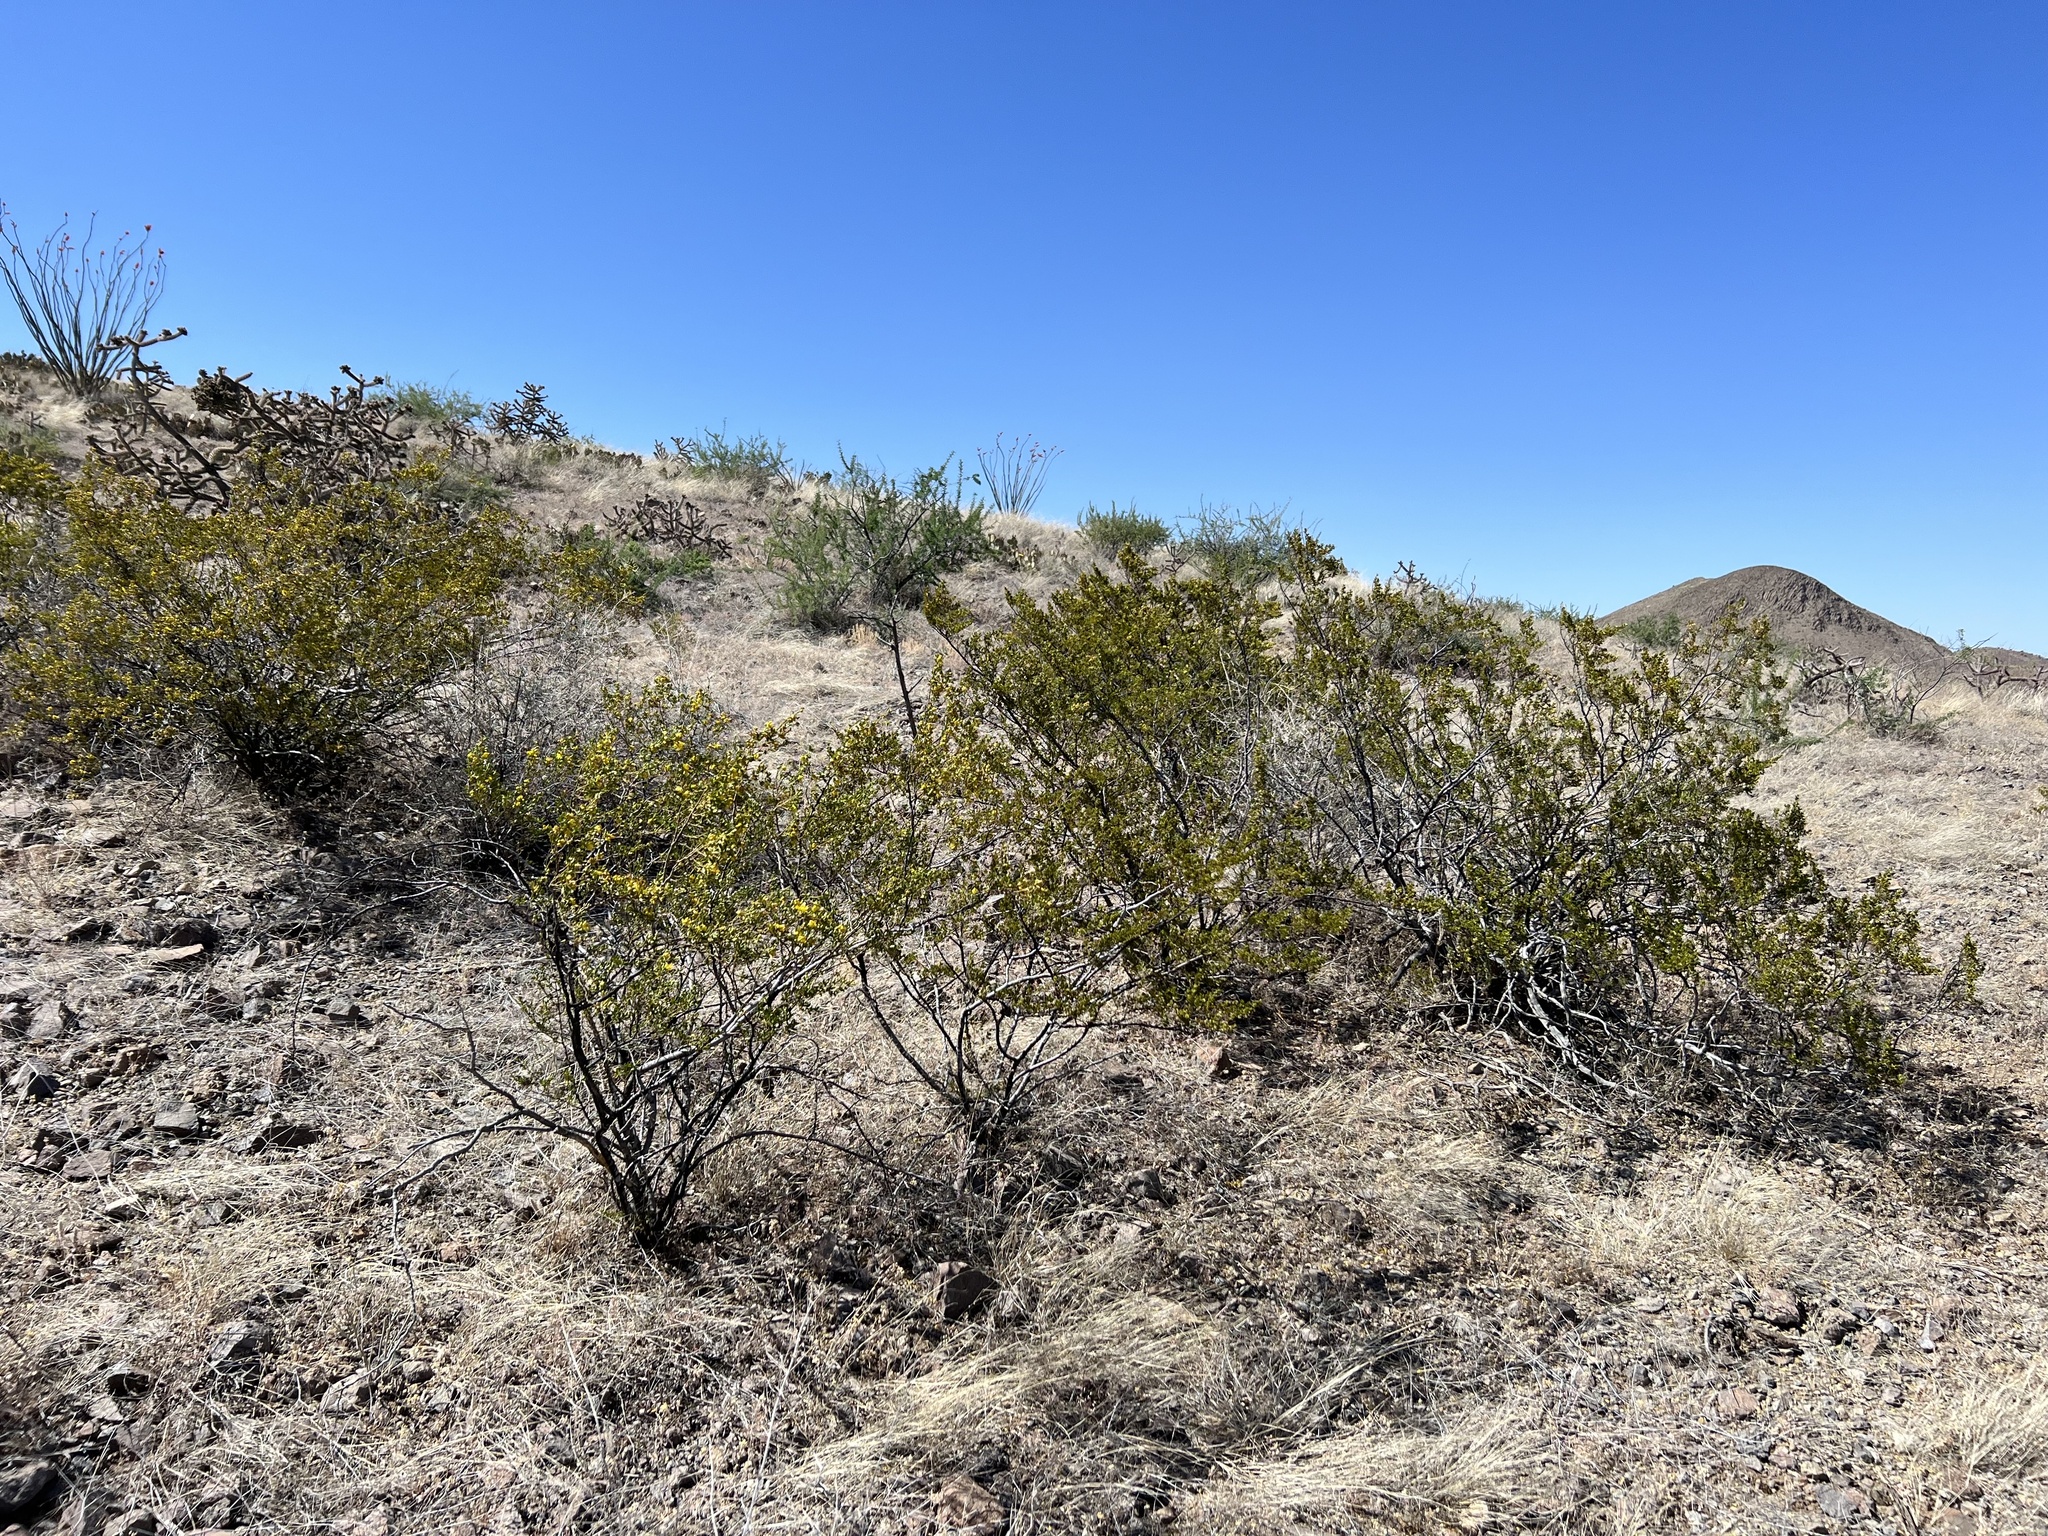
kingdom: Plantae
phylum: Tracheophyta
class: Magnoliopsida
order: Zygophyllales
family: Zygophyllaceae
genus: Larrea
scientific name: Larrea tridentata
